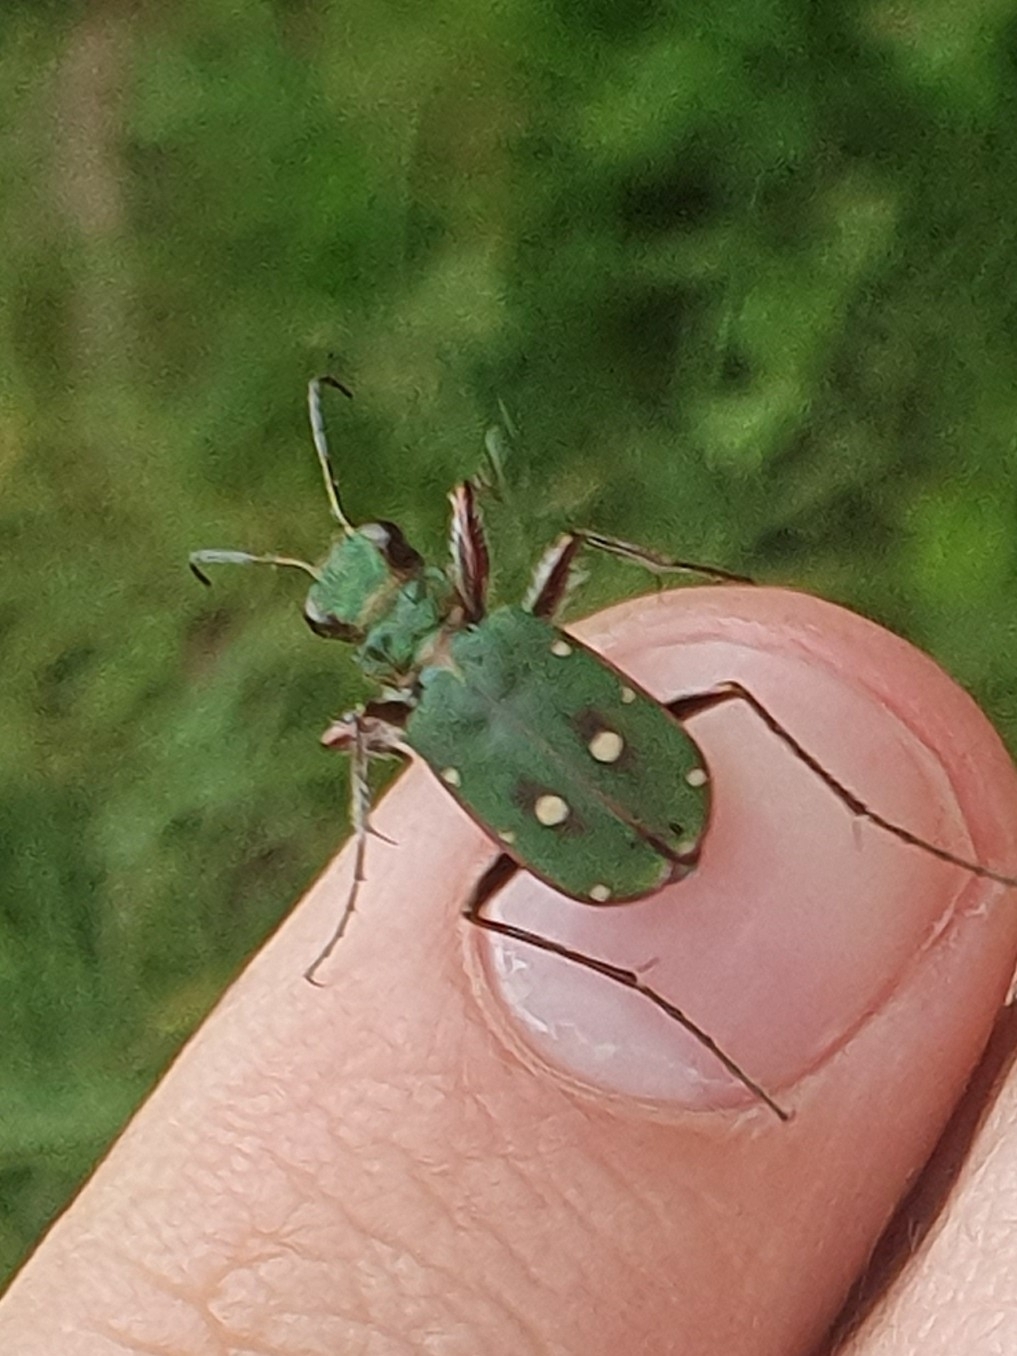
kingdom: Animalia
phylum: Arthropoda
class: Insecta
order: Coleoptera
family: Carabidae
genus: Cicindela
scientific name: Cicindela campestris
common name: Common tiger beetle
